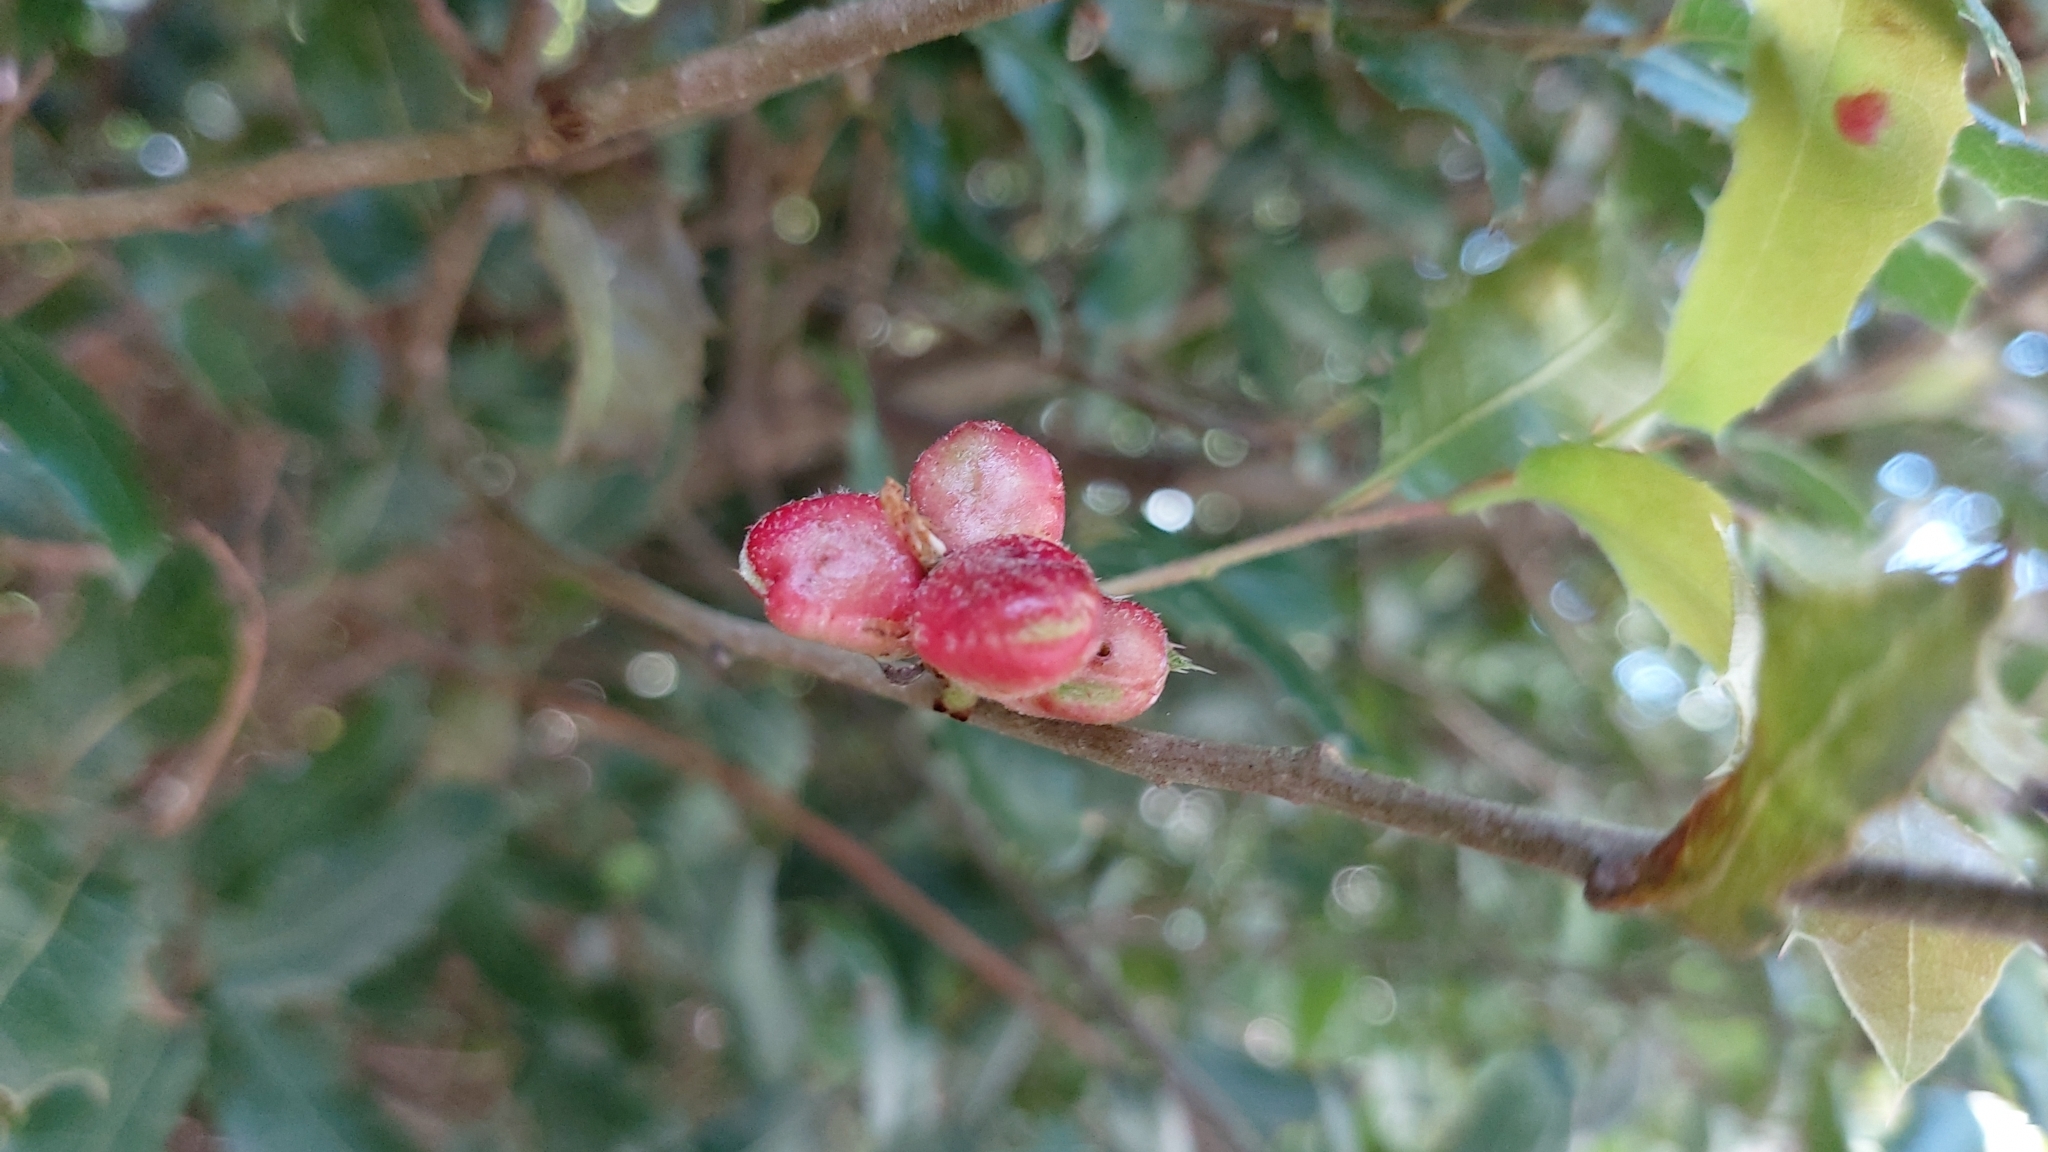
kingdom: Animalia
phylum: Arthropoda
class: Insecta
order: Hymenoptera
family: Cynipidae
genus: Plagiotrochus
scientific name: Plagiotrochus quercusilicis
